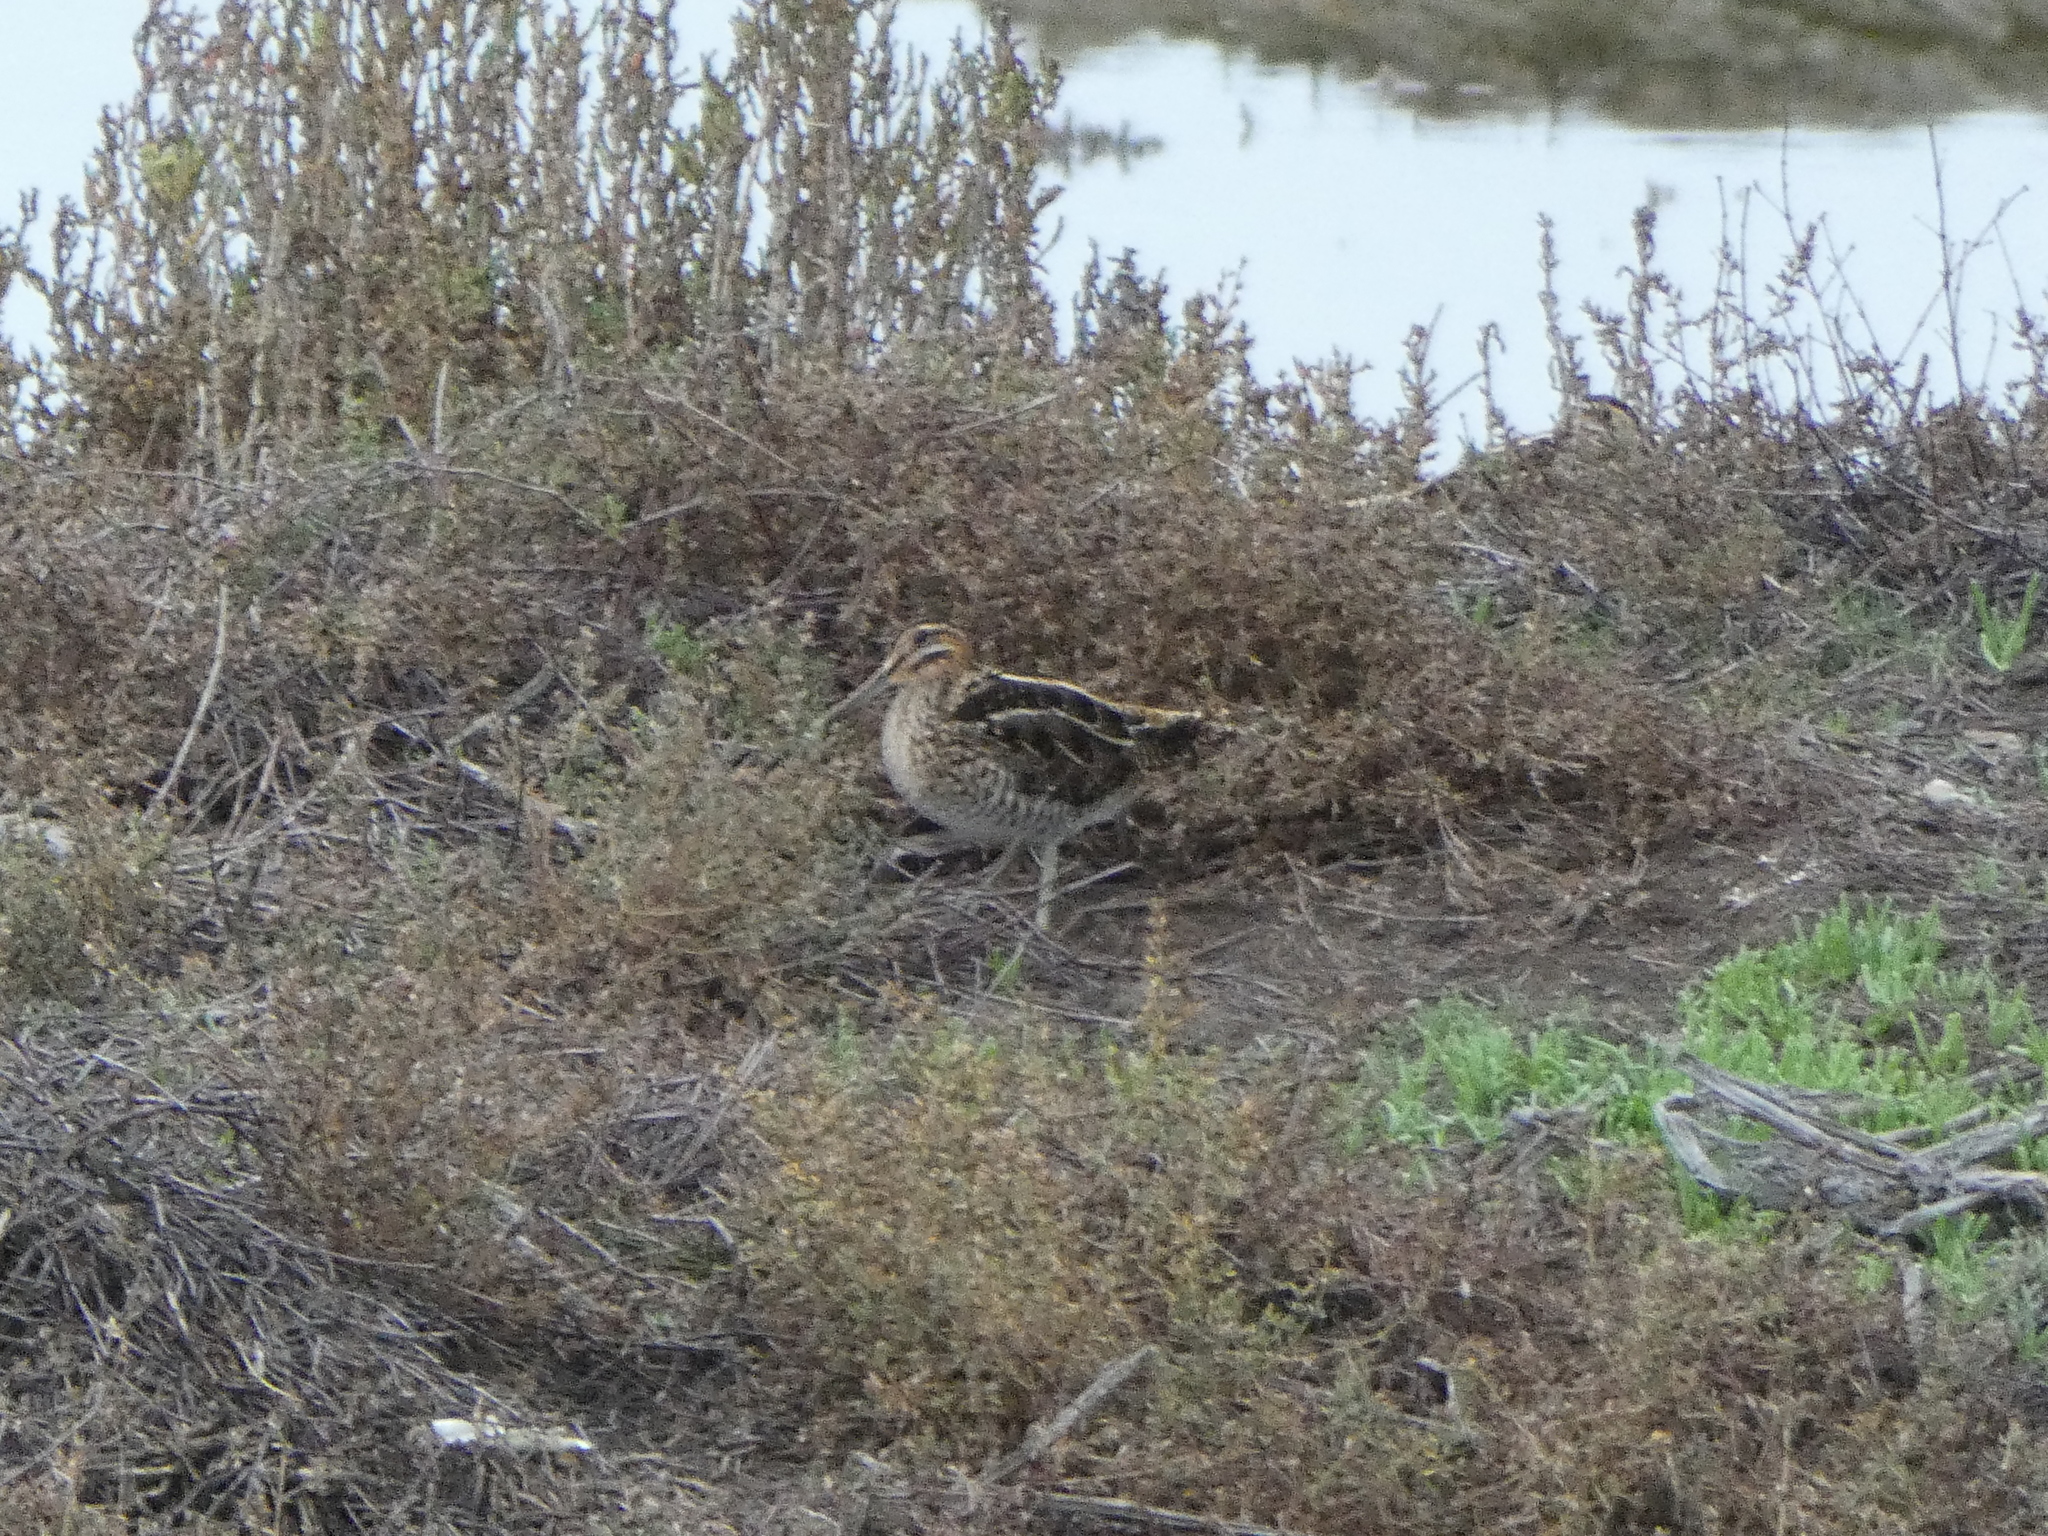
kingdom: Animalia
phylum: Chordata
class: Aves
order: Charadriiformes
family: Scolopacidae
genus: Gallinago
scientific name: Gallinago delicata
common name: Wilson's snipe
